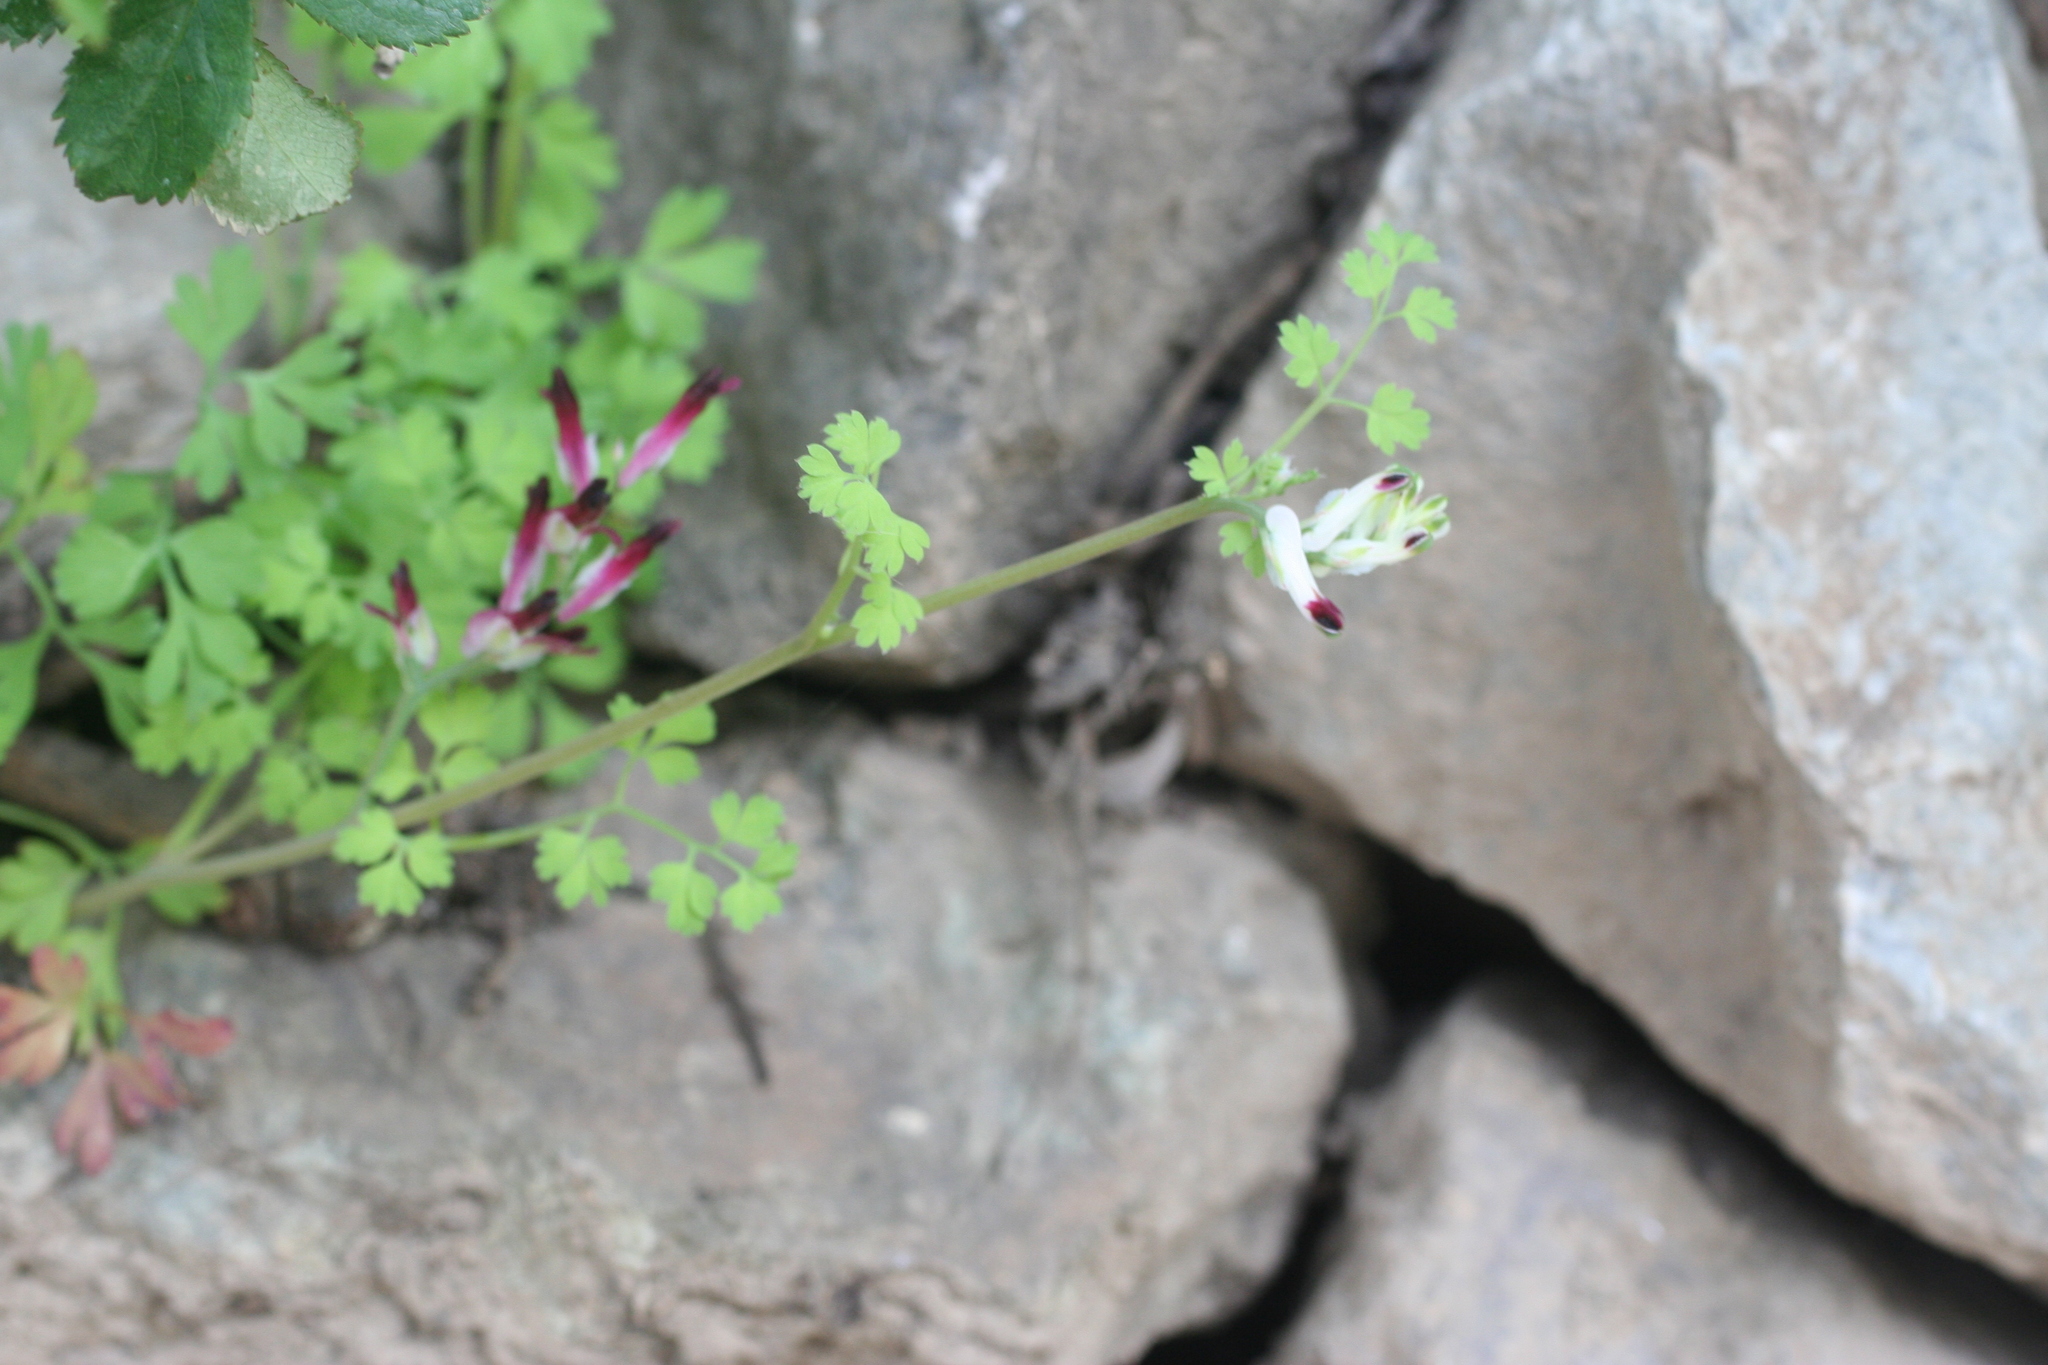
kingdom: Plantae
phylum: Tracheophyta
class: Magnoliopsida
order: Ranunculales
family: Papaveraceae
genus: Fumaria
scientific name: Fumaria capreolata
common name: White ramping-fumitory
